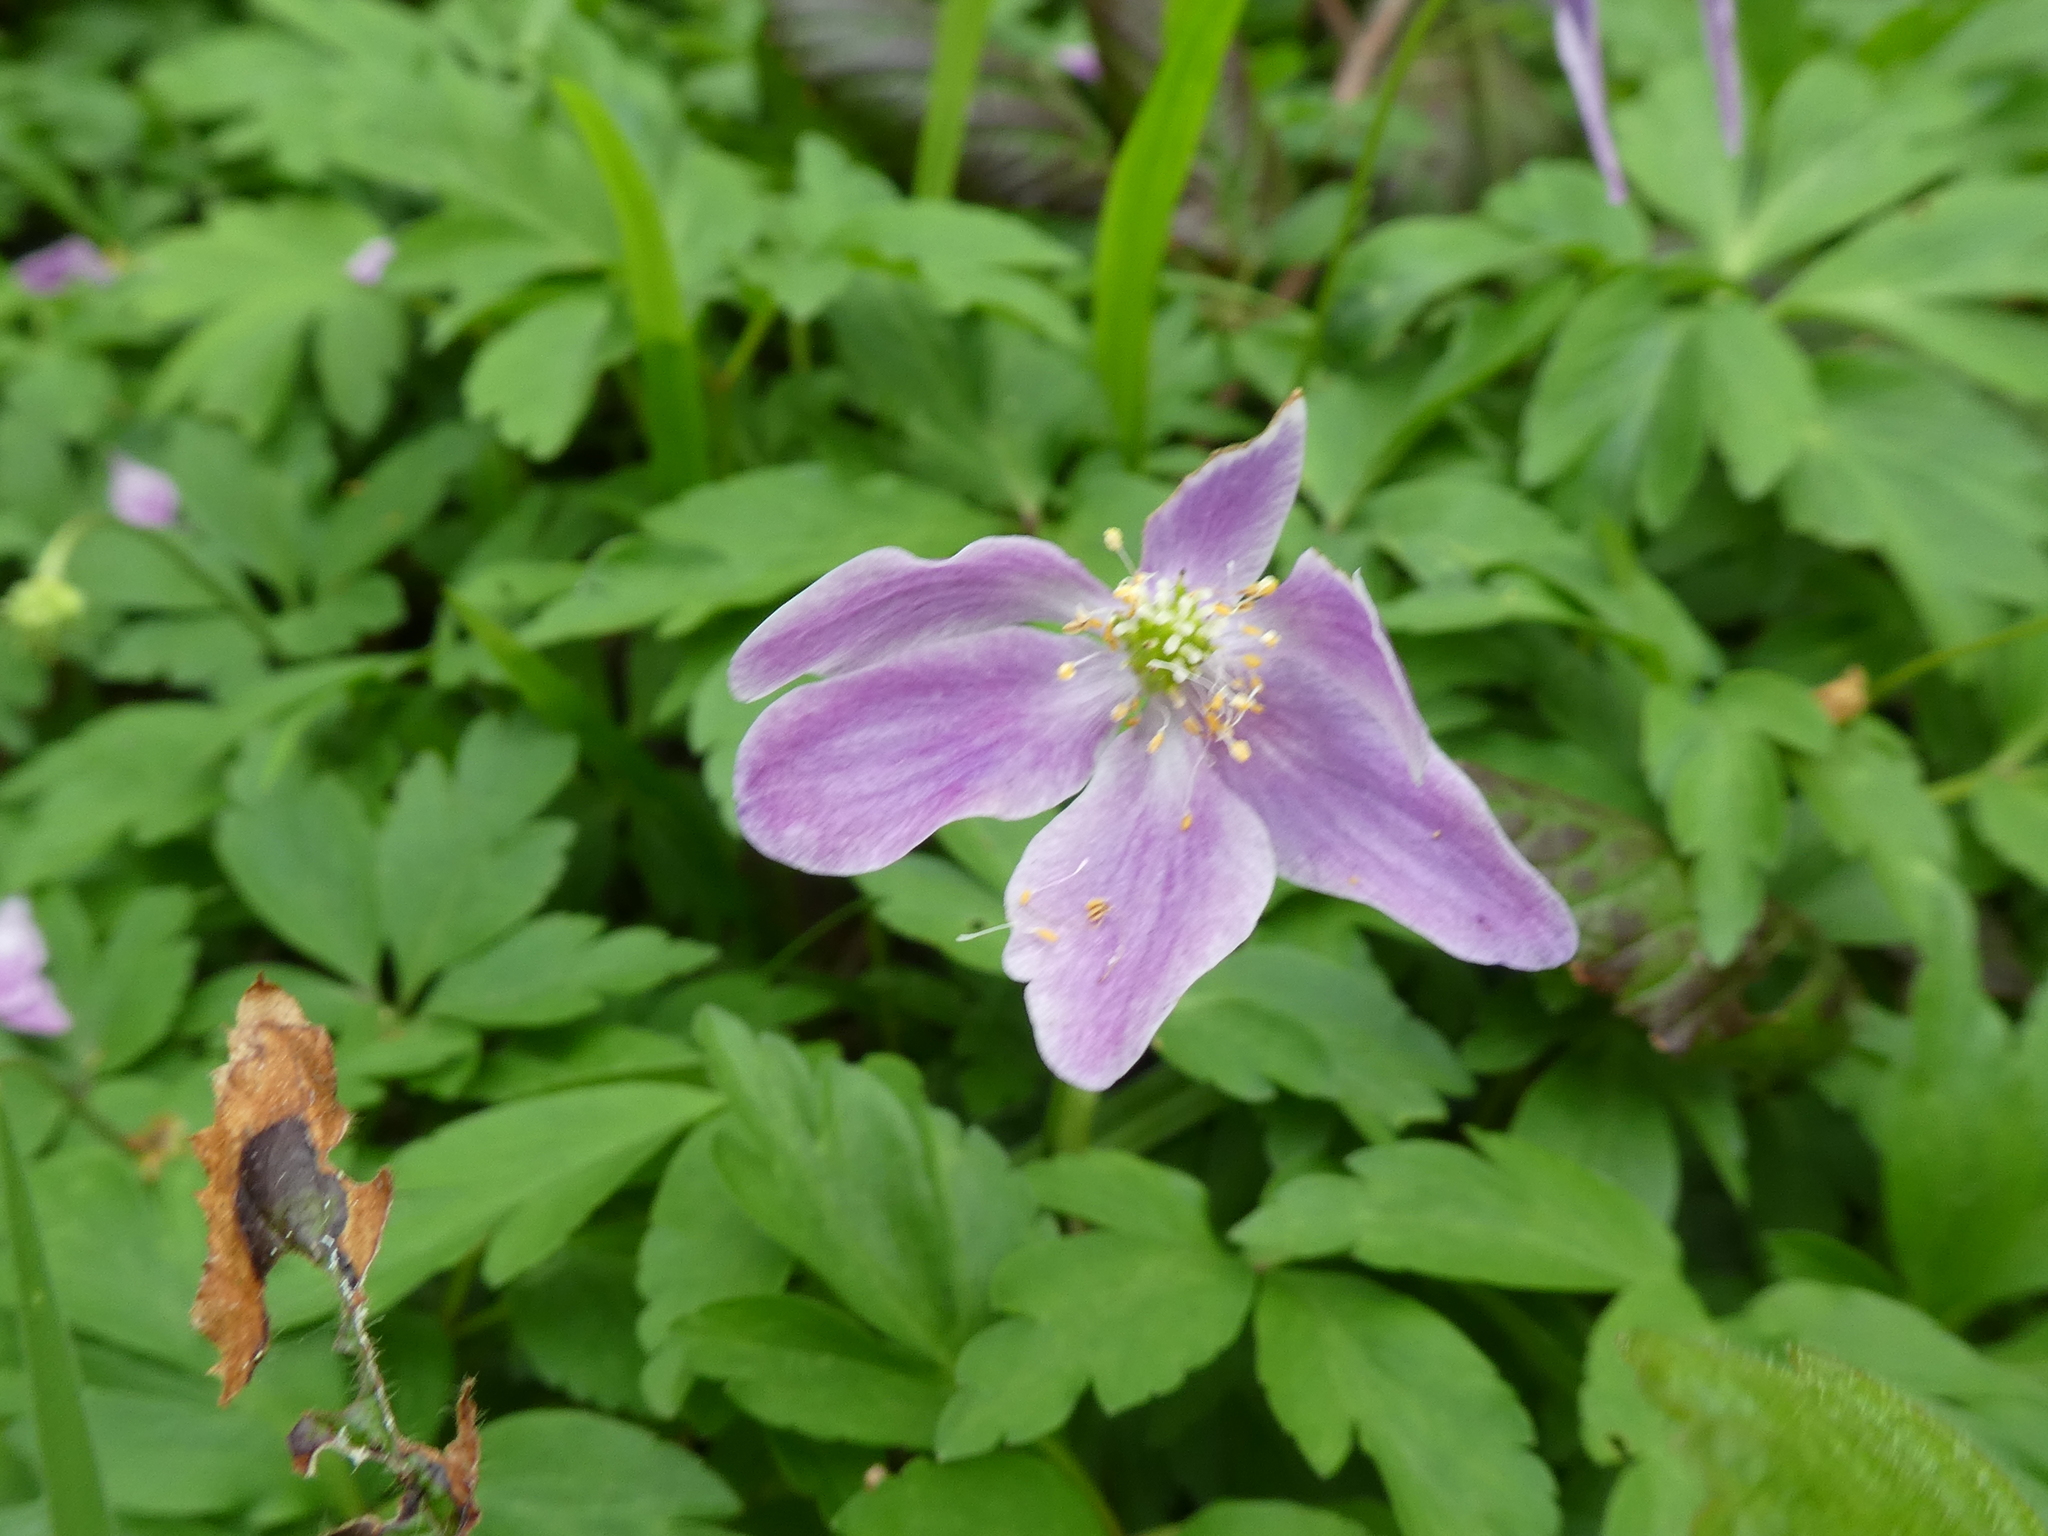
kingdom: Plantae
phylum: Tracheophyta
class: Magnoliopsida
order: Ranunculales
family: Ranunculaceae
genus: Anemone
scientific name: Anemone nemorosa
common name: Wood anemone
